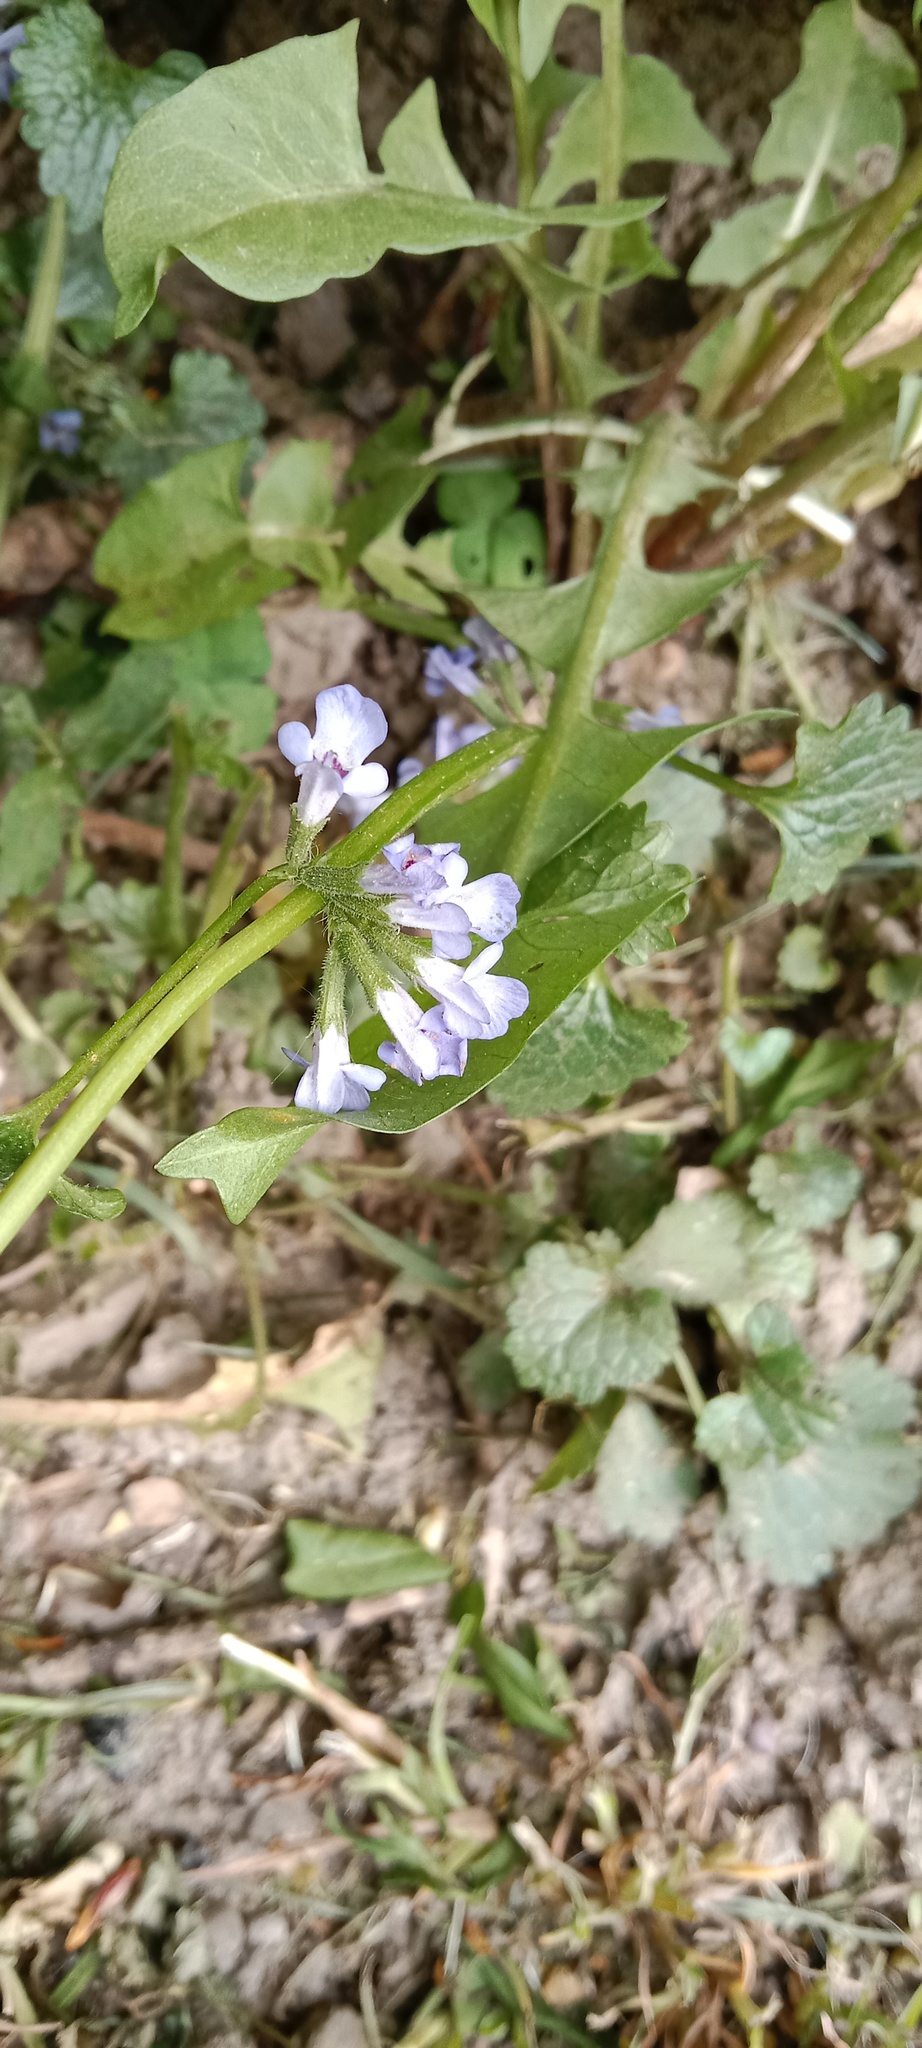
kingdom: Plantae
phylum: Tracheophyta
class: Magnoliopsida
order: Lamiales
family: Lamiaceae
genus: Glechoma
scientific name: Glechoma hederacea
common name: Ground ivy
